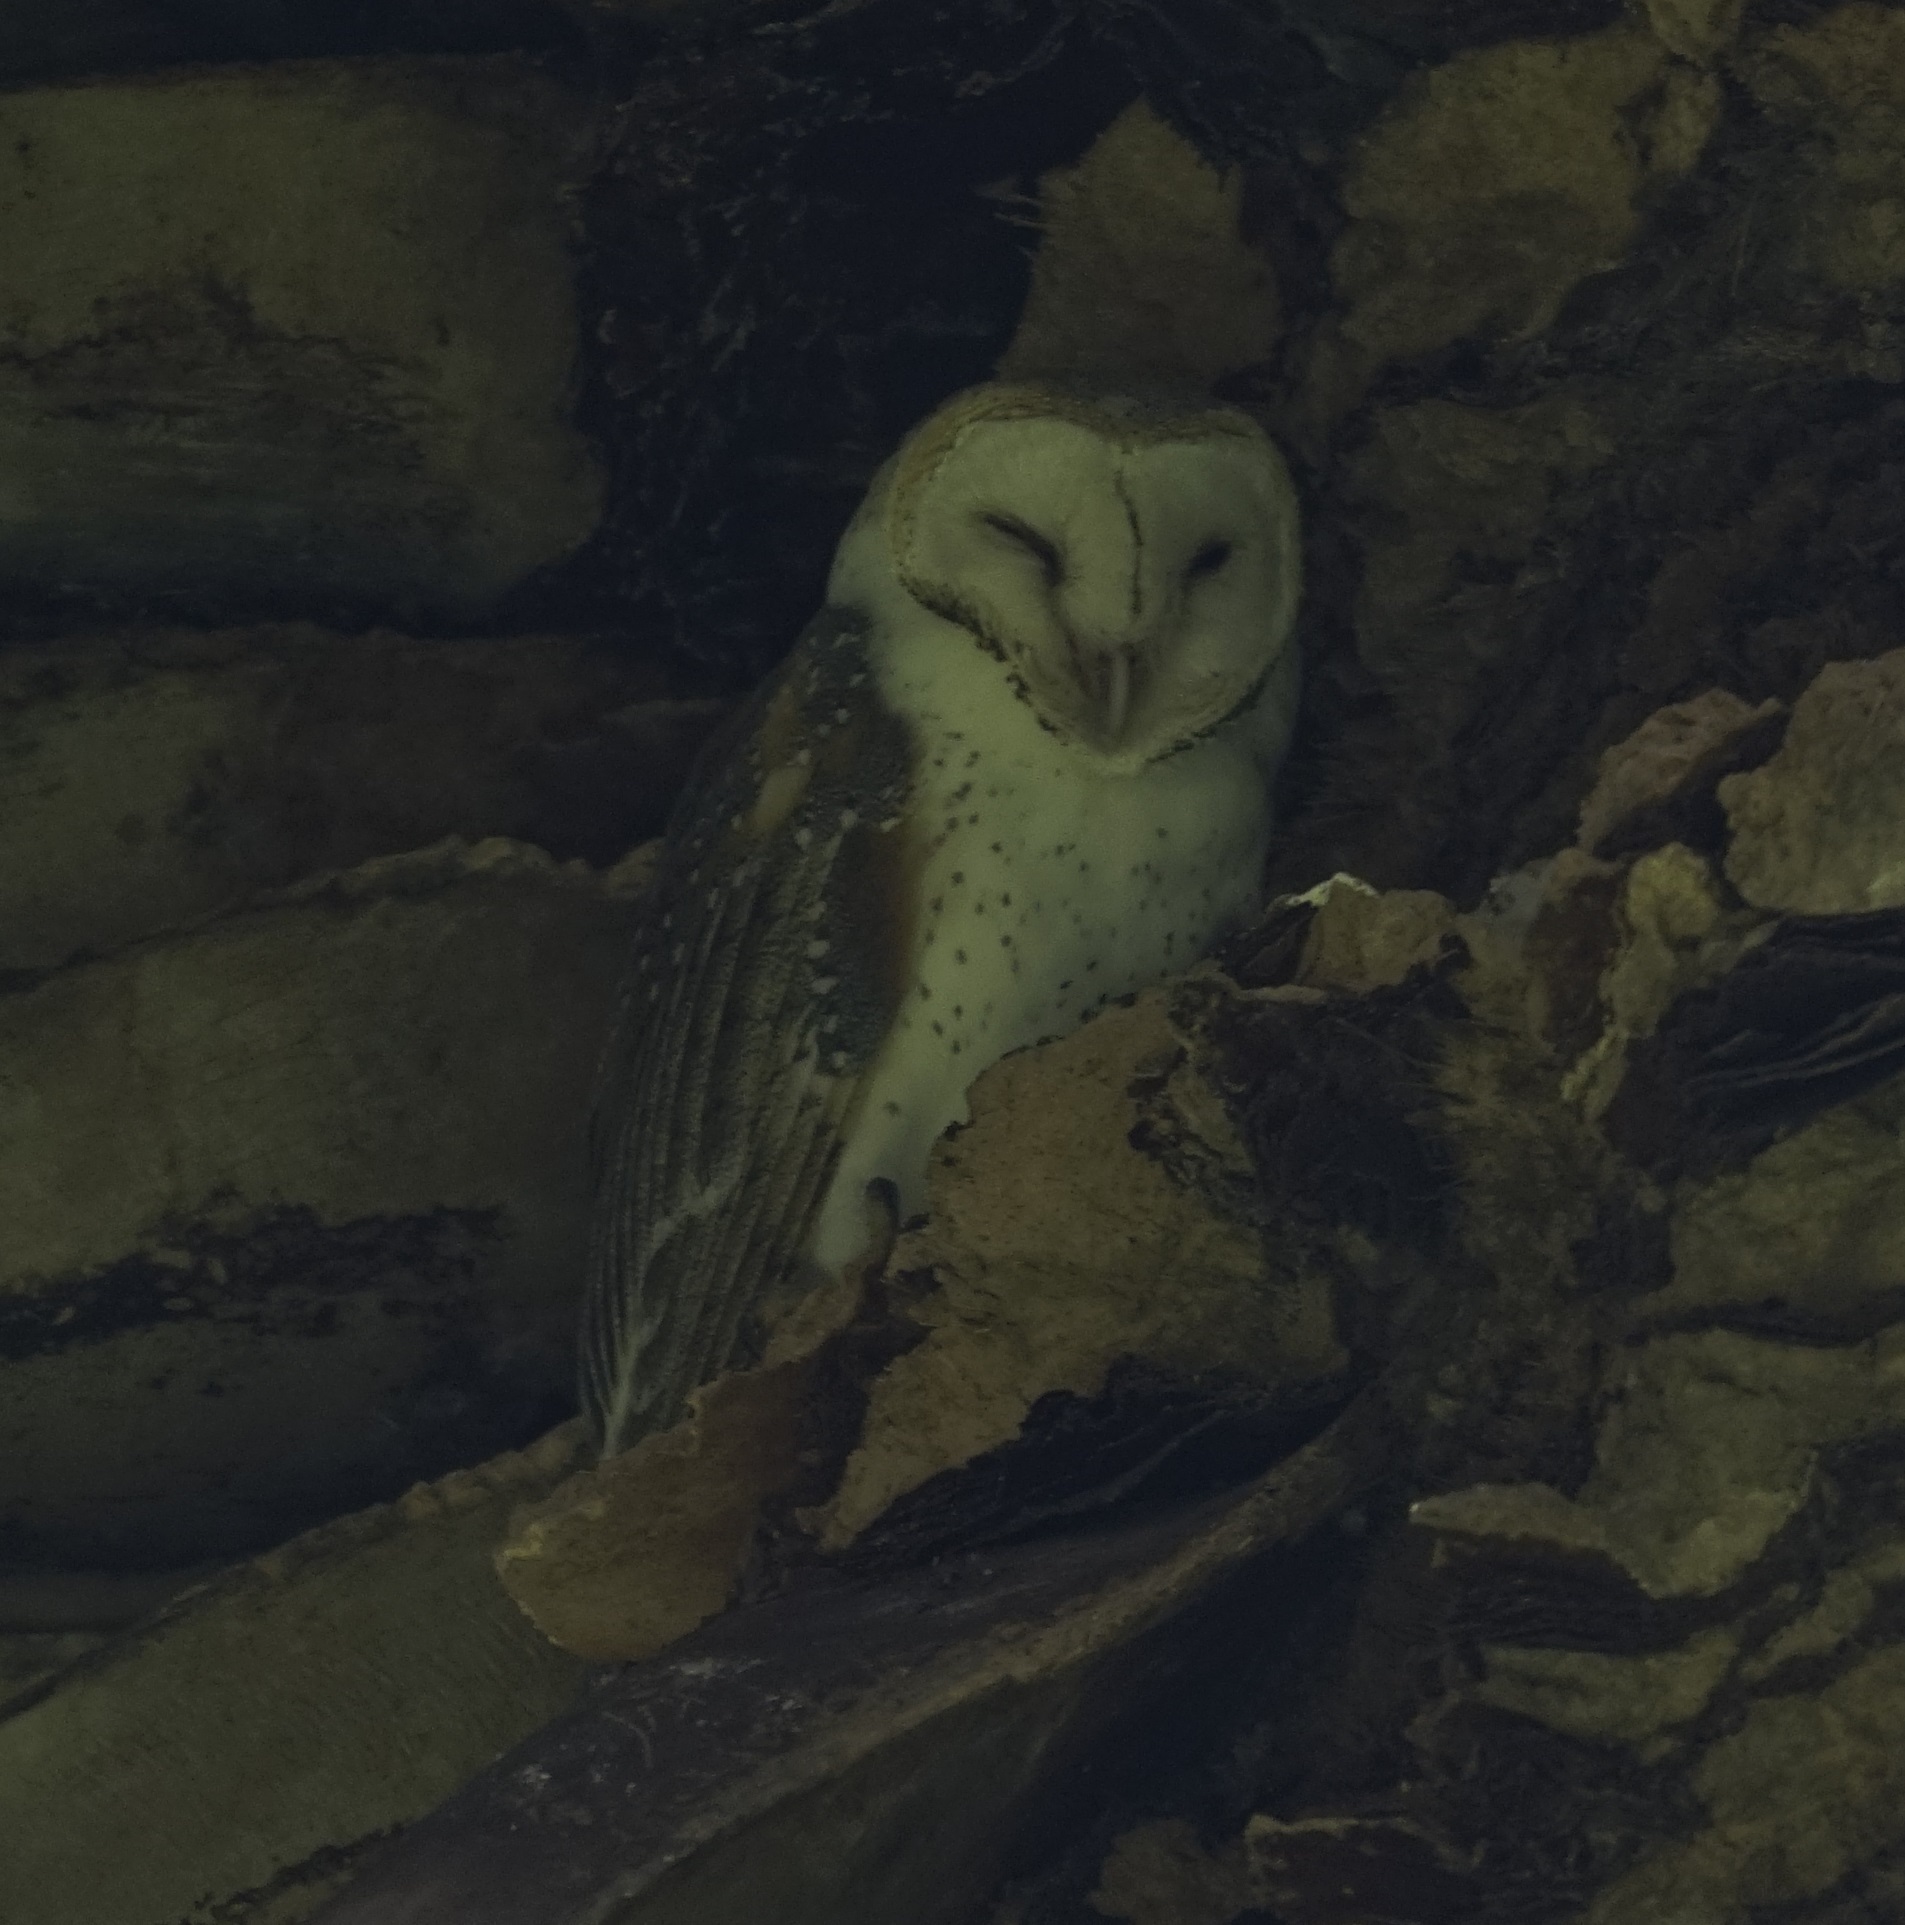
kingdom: Animalia
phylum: Chordata
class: Aves
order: Strigiformes
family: Tytonidae
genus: Tyto
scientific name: Tyto alba
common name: Barn owl
